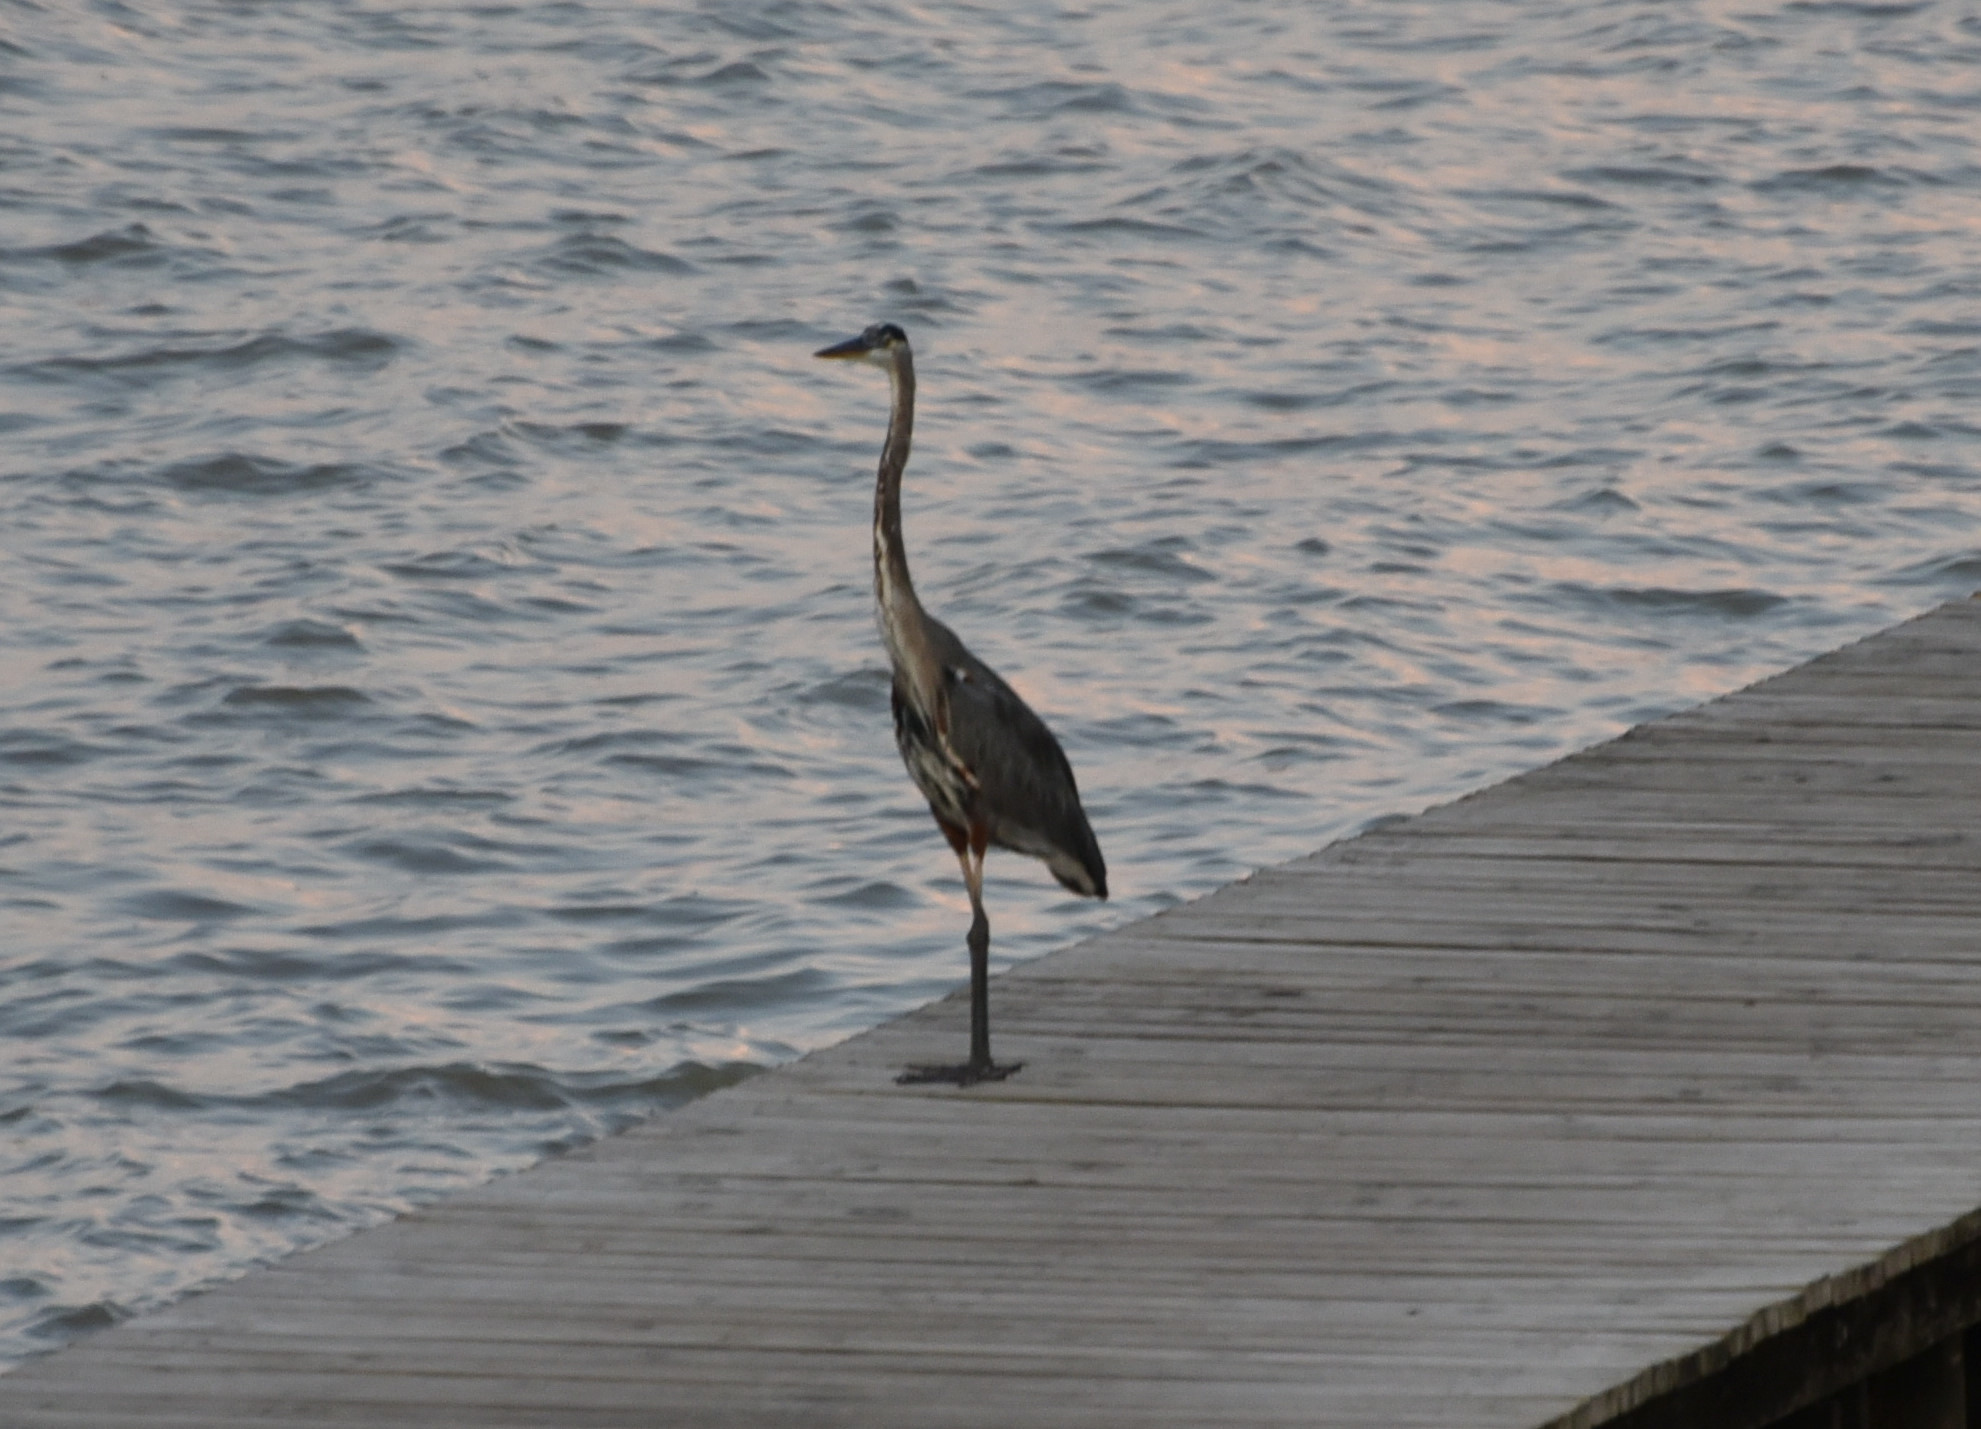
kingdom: Animalia
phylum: Chordata
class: Aves
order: Pelecaniformes
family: Ardeidae
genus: Ardea
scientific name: Ardea herodias
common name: Great blue heron
